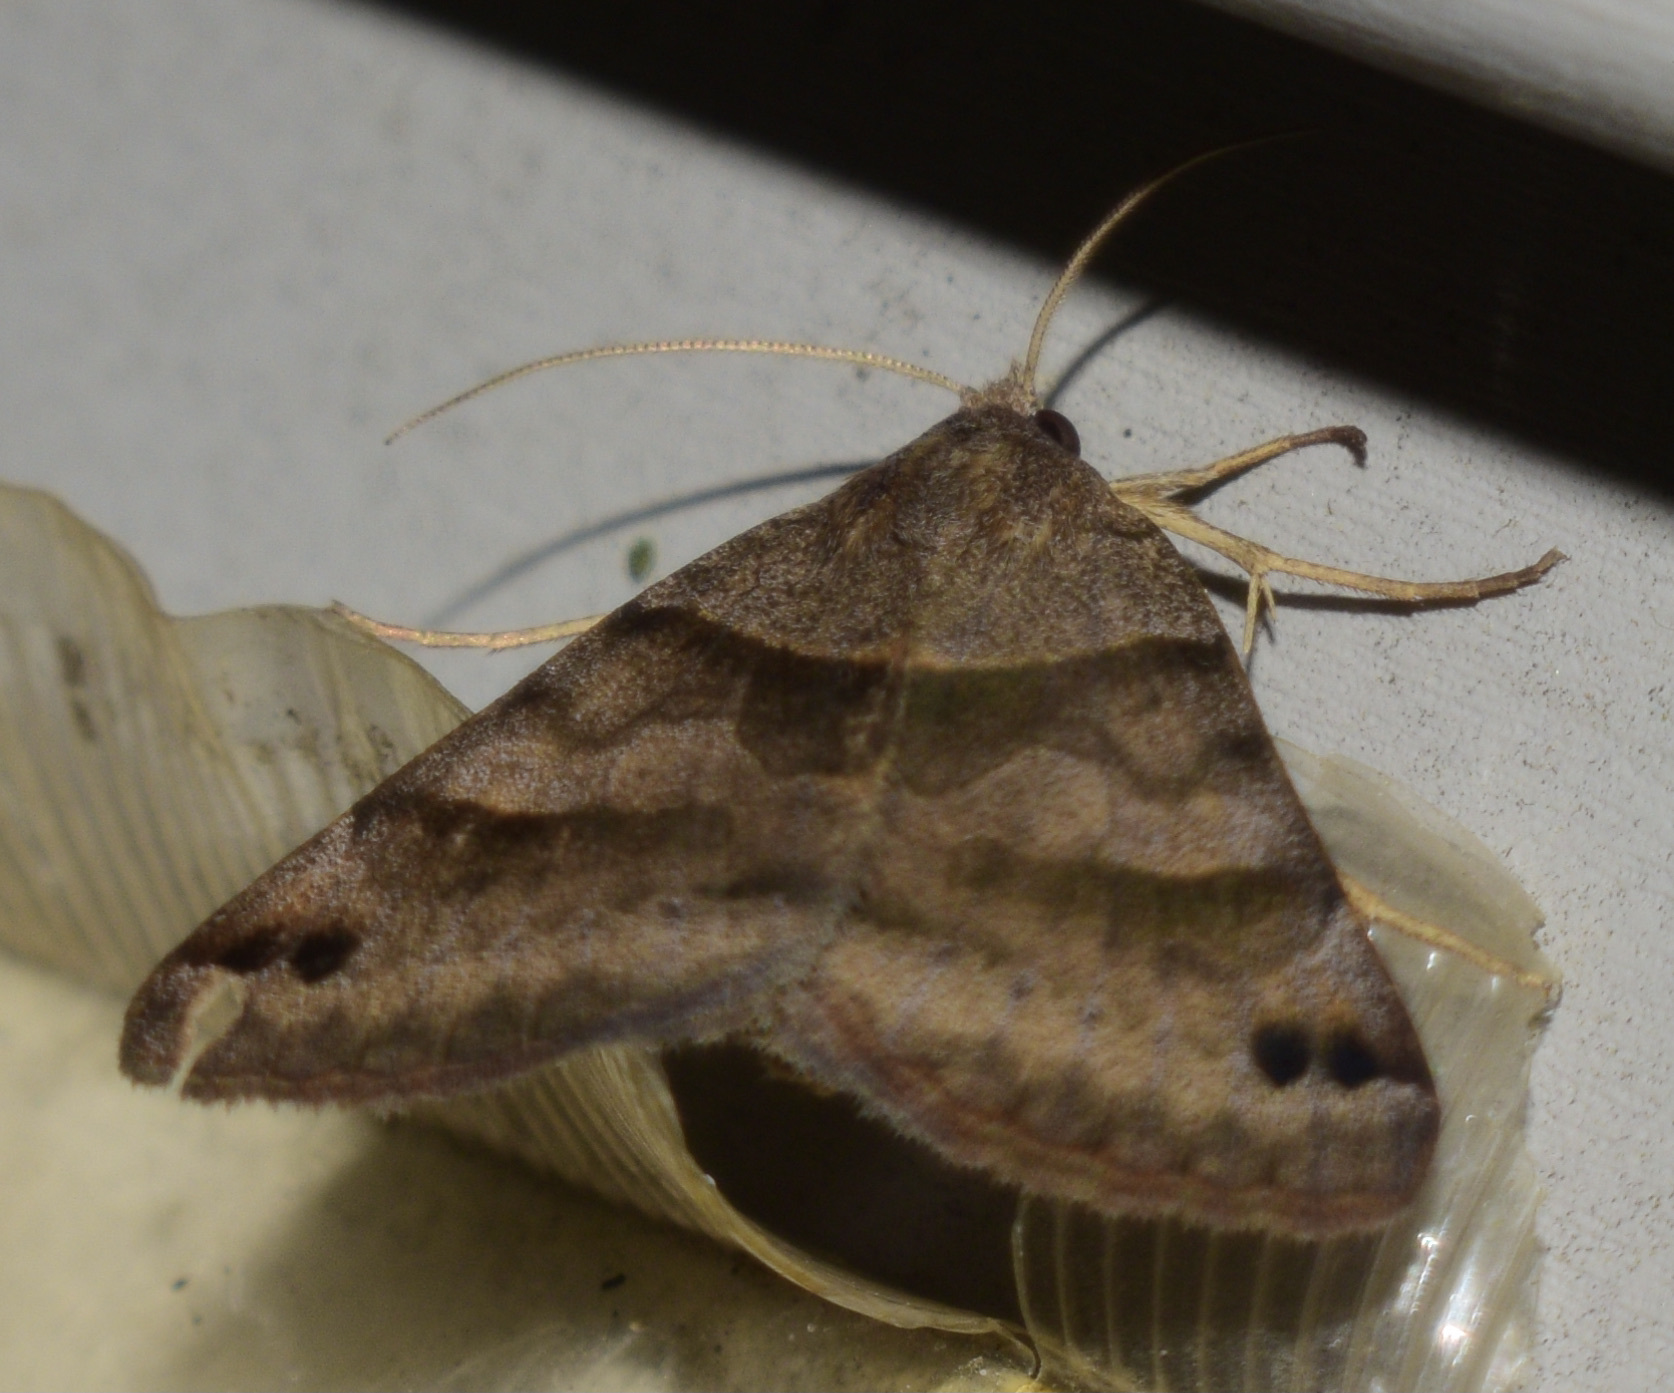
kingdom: Animalia
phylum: Arthropoda
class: Insecta
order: Lepidoptera
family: Erebidae
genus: Caenurgina
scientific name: Caenurgina crassiuscula
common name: Double-barred
